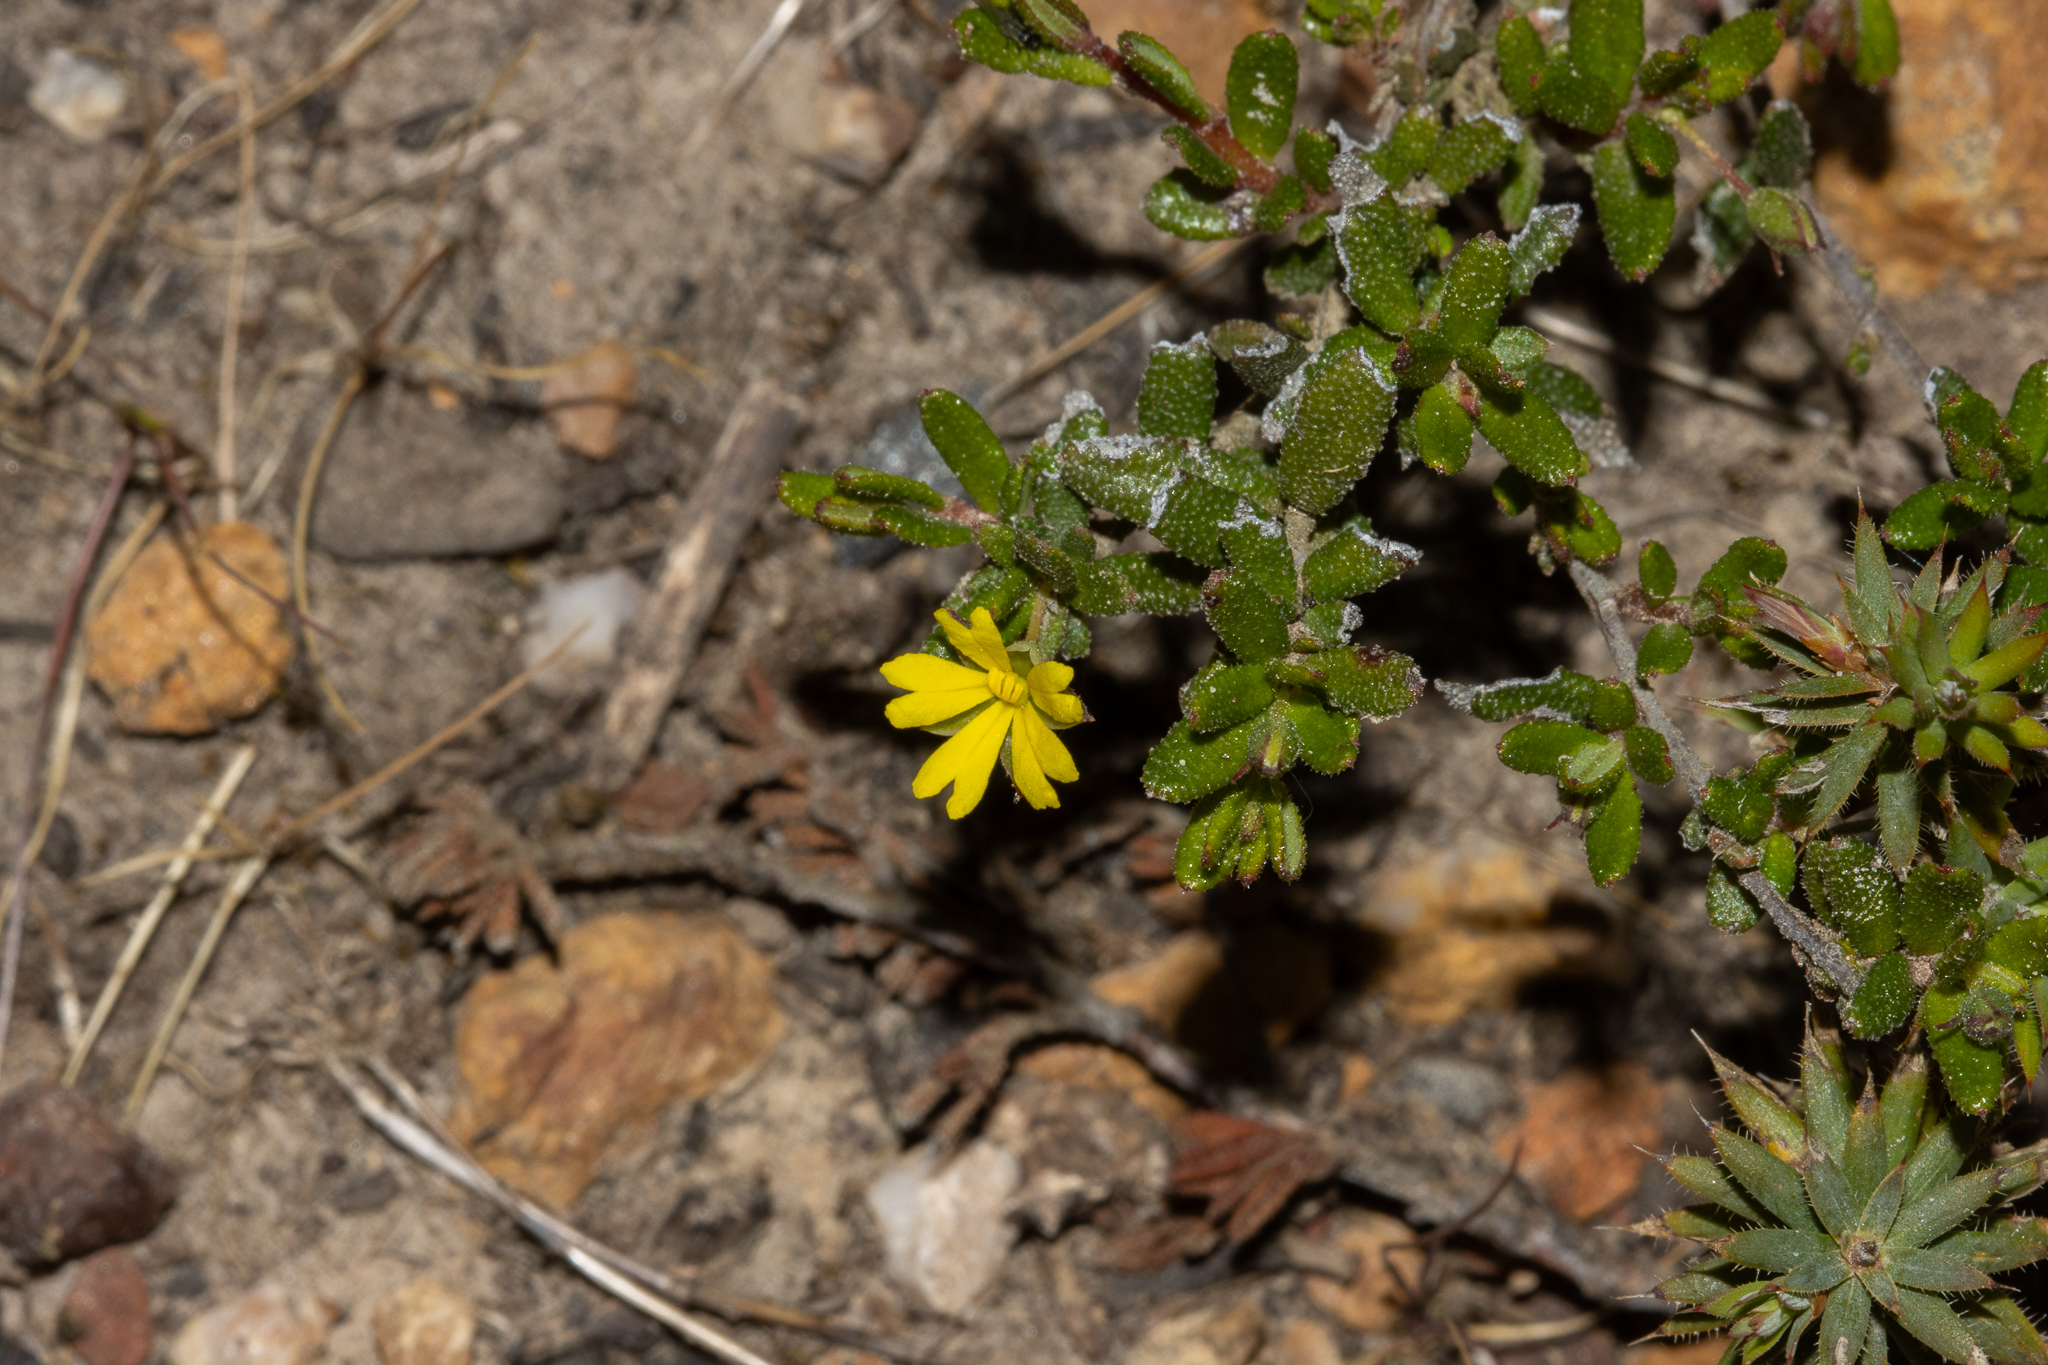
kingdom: Plantae
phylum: Tracheophyta
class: Magnoliopsida
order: Dilleniales
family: Dilleniaceae
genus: Hibbertia
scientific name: Hibbertia
